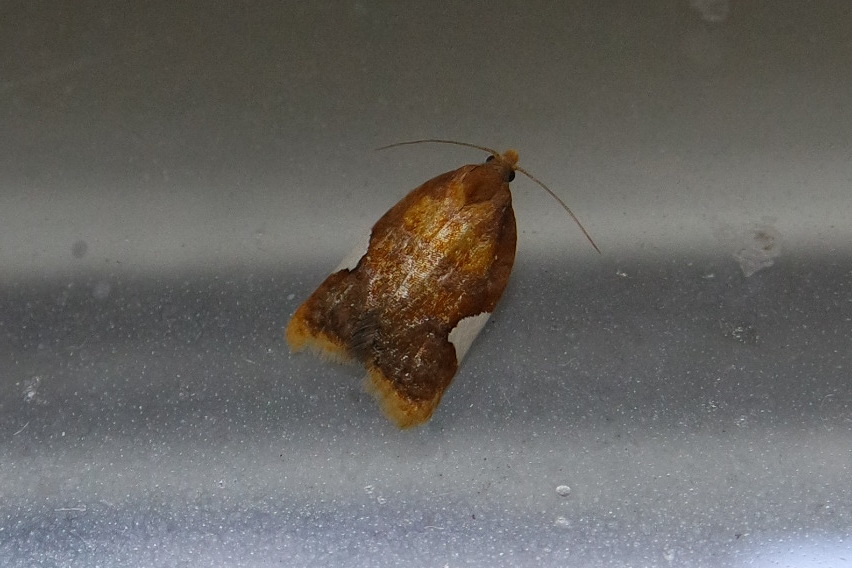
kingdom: Animalia
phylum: Arthropoda
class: Insecta
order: Lepidoptera
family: Tortricidae
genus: Acleris
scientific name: Acleris holmiana
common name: Golden leafroller moth
